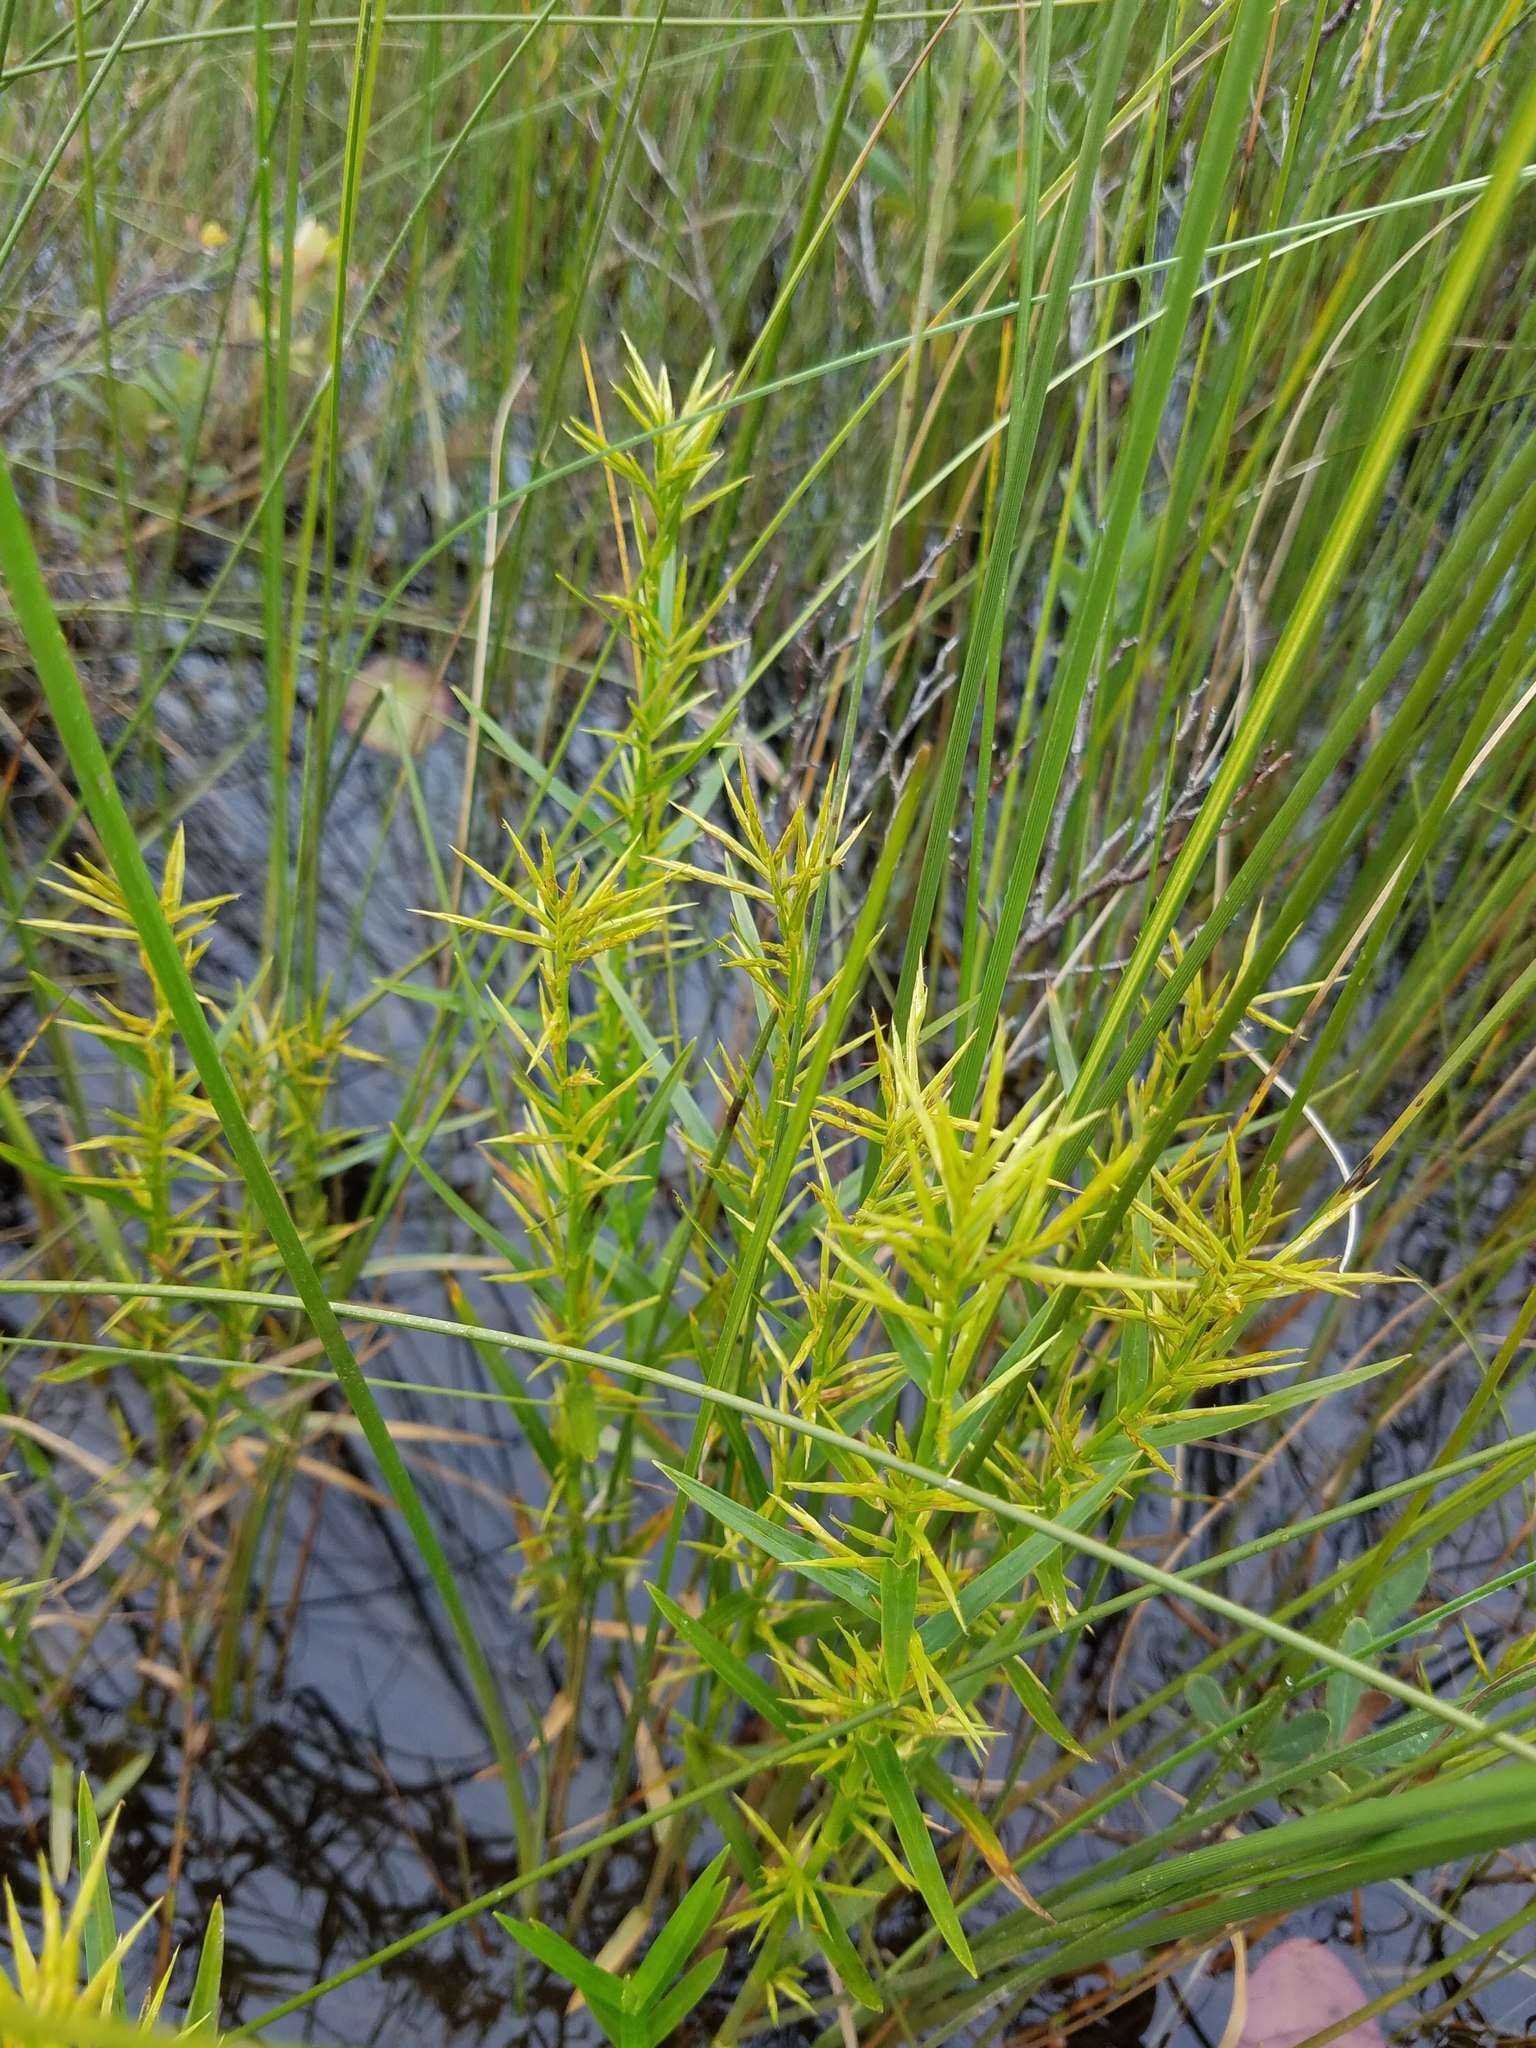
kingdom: Plantae
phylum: Tracheophyta
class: Liliopsida
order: Poales
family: Cyperaceae
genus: Dulichium
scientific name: Dulichium arundinaceum
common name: Three-way sedge
